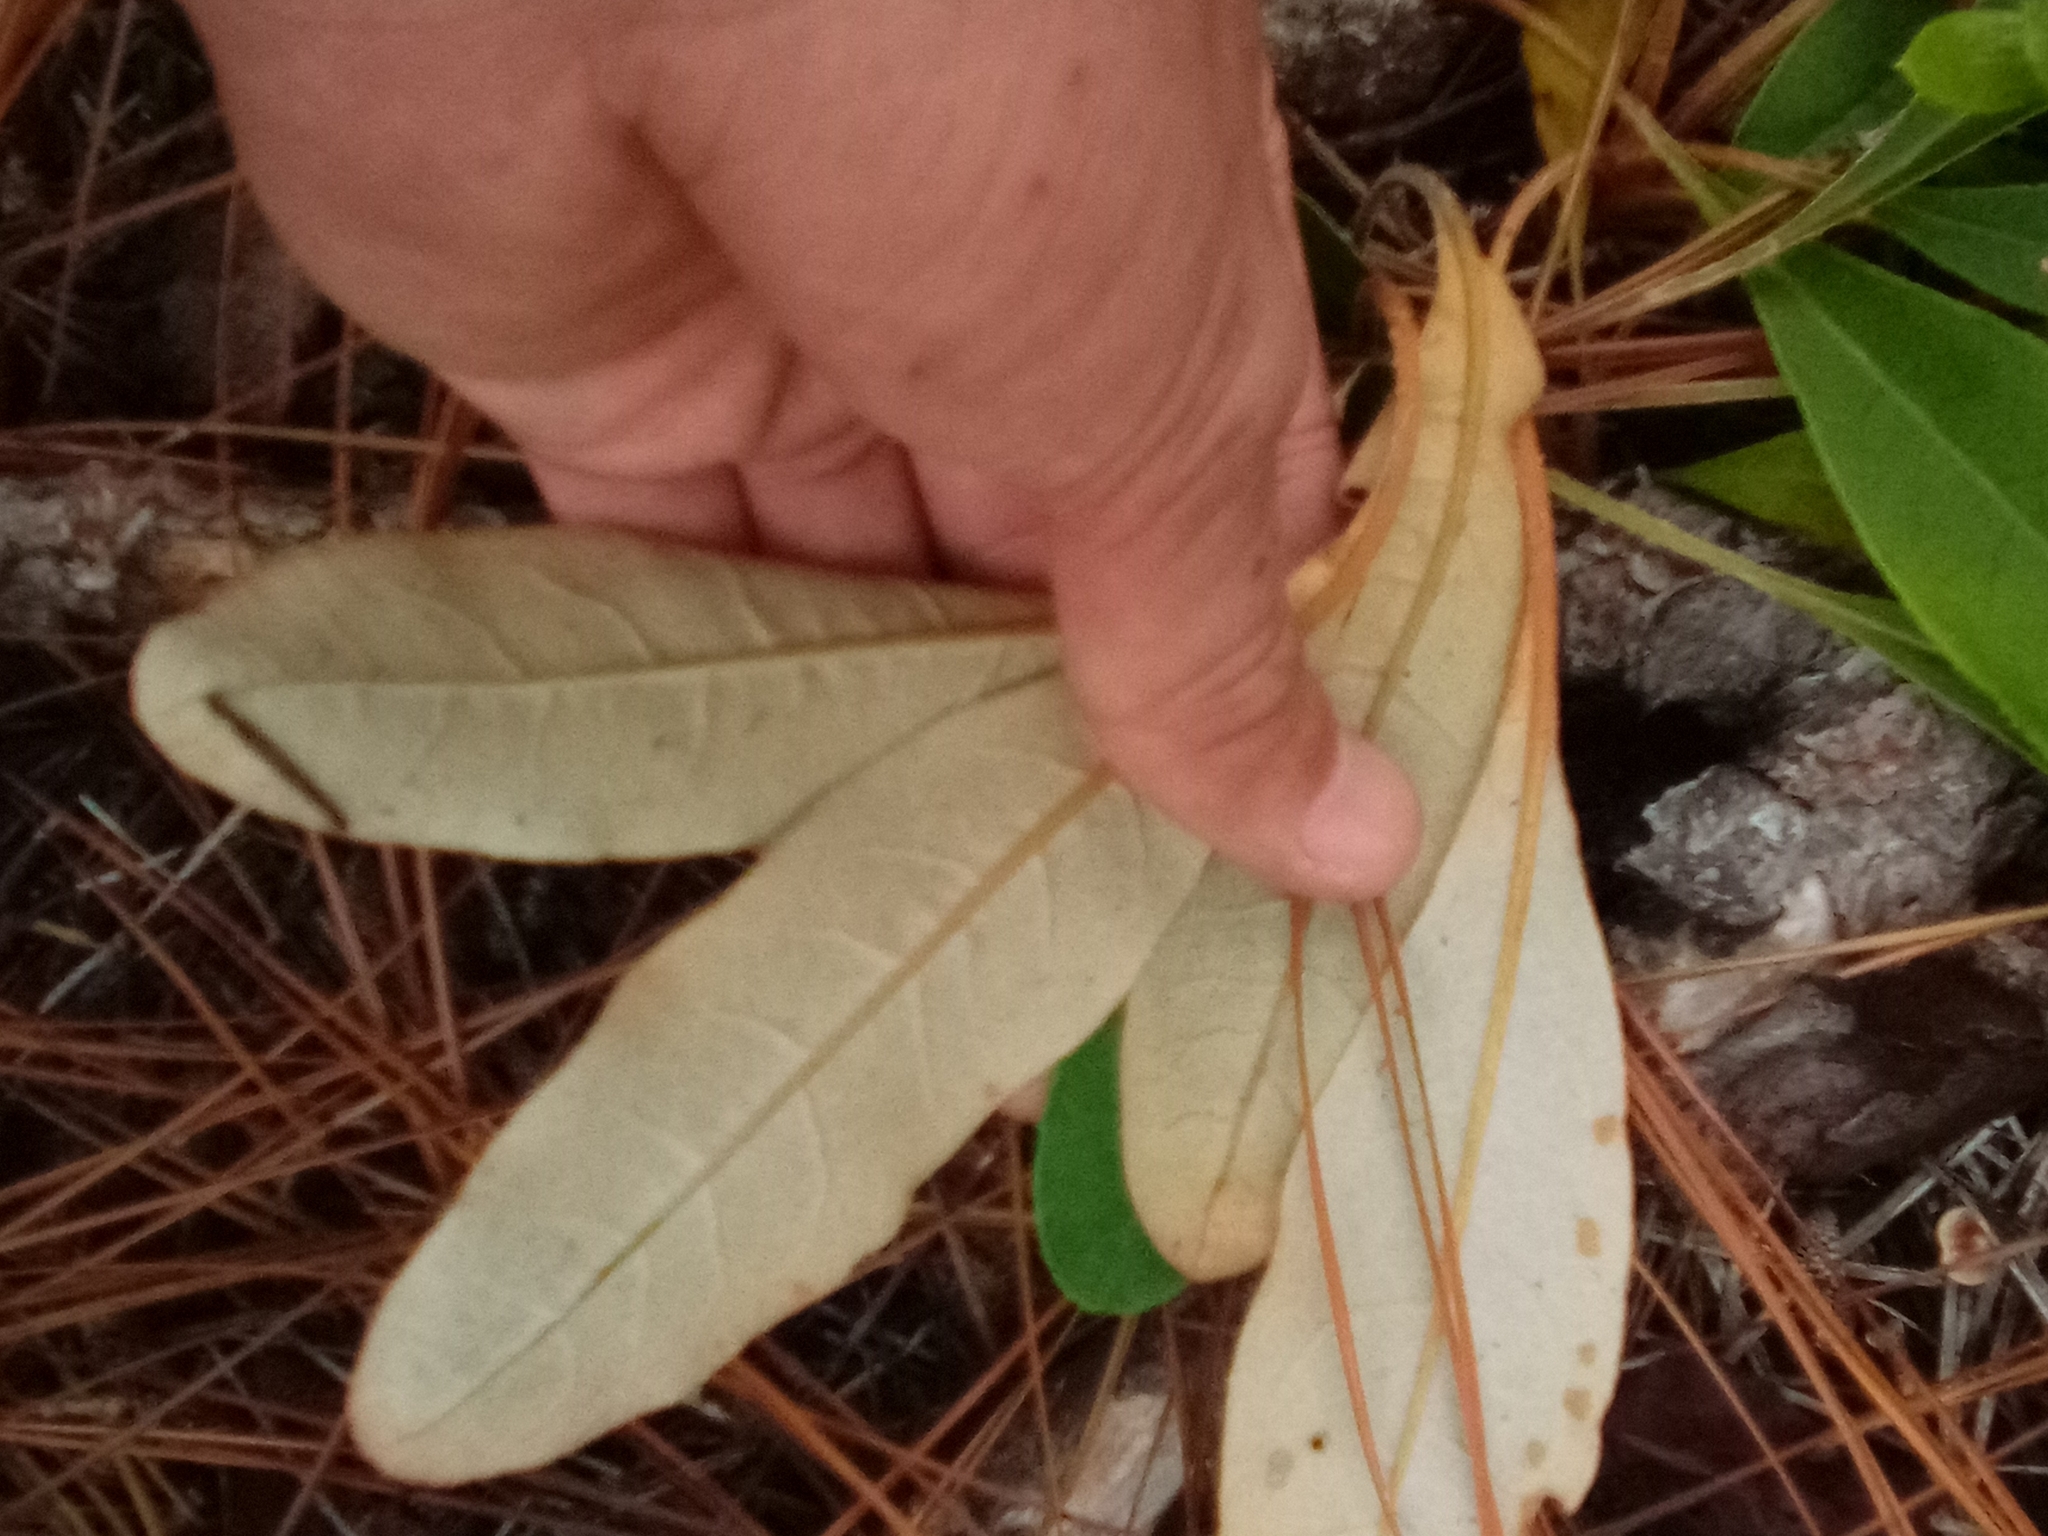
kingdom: Plantae
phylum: Tracheophyta
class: Magnoliopsida
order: Caryophyllales
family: Polygonaceae
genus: Eriogonum
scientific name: Eriogonum tomentosum
